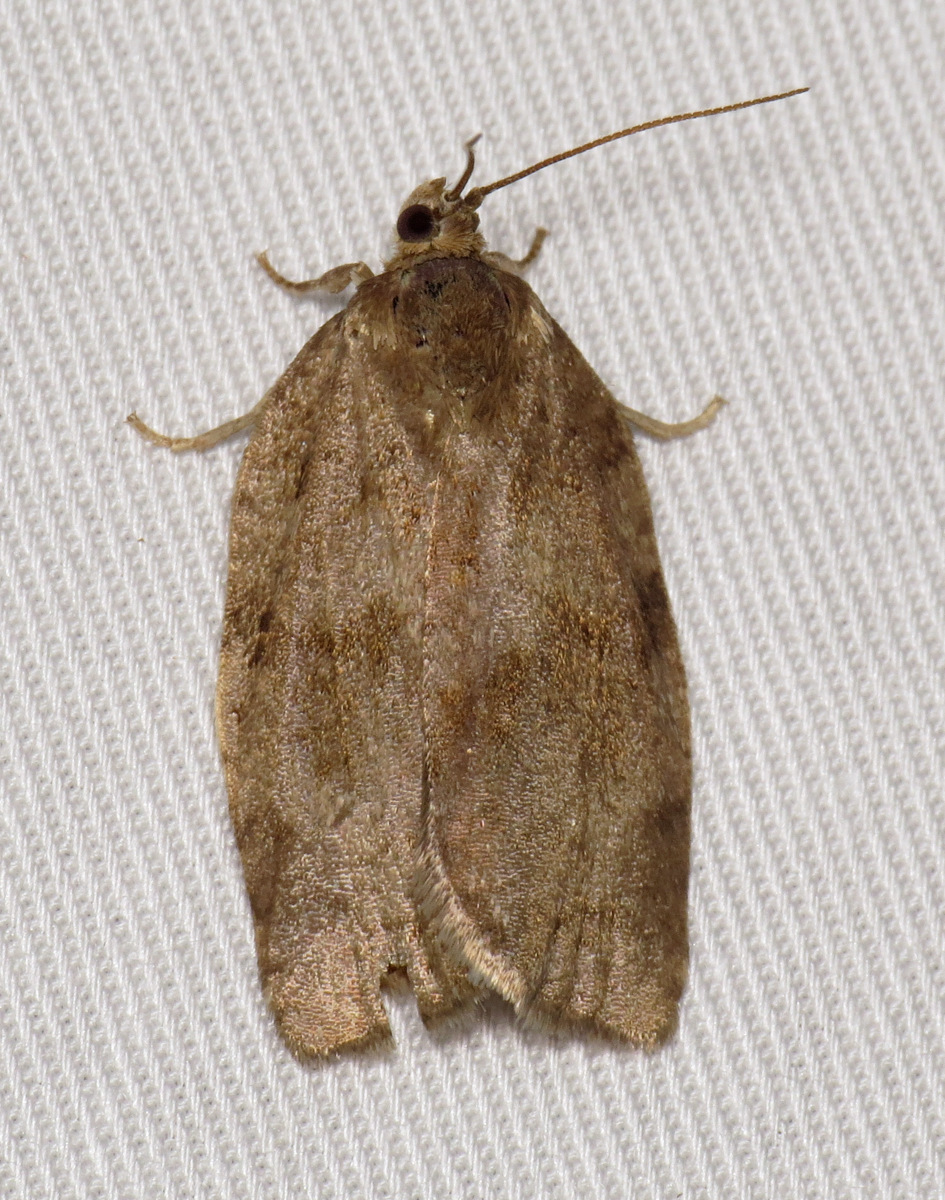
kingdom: Animalia
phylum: Arthropoda
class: Insecta
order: Lepidoptera
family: Tortricidae
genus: Choristoneura
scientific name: Choristoneura conflictana
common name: Large aspen tortrix
